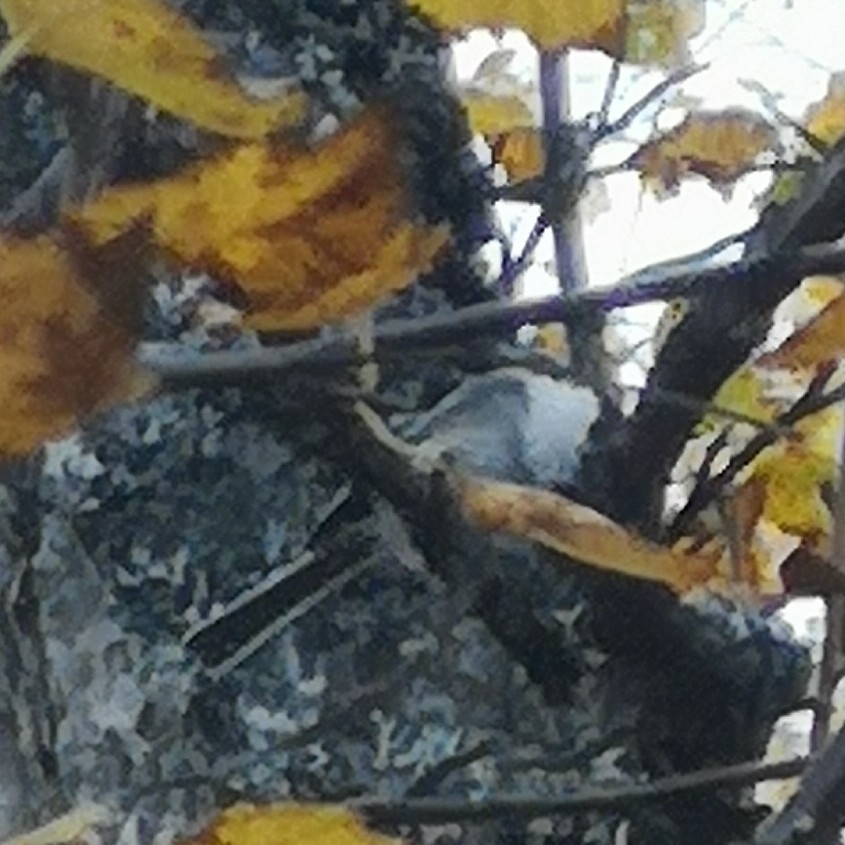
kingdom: Animalia
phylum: Chordata
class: Aves
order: Passeriformes
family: Paridae
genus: Poecile
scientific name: Poecile montanus
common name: Willow tit
